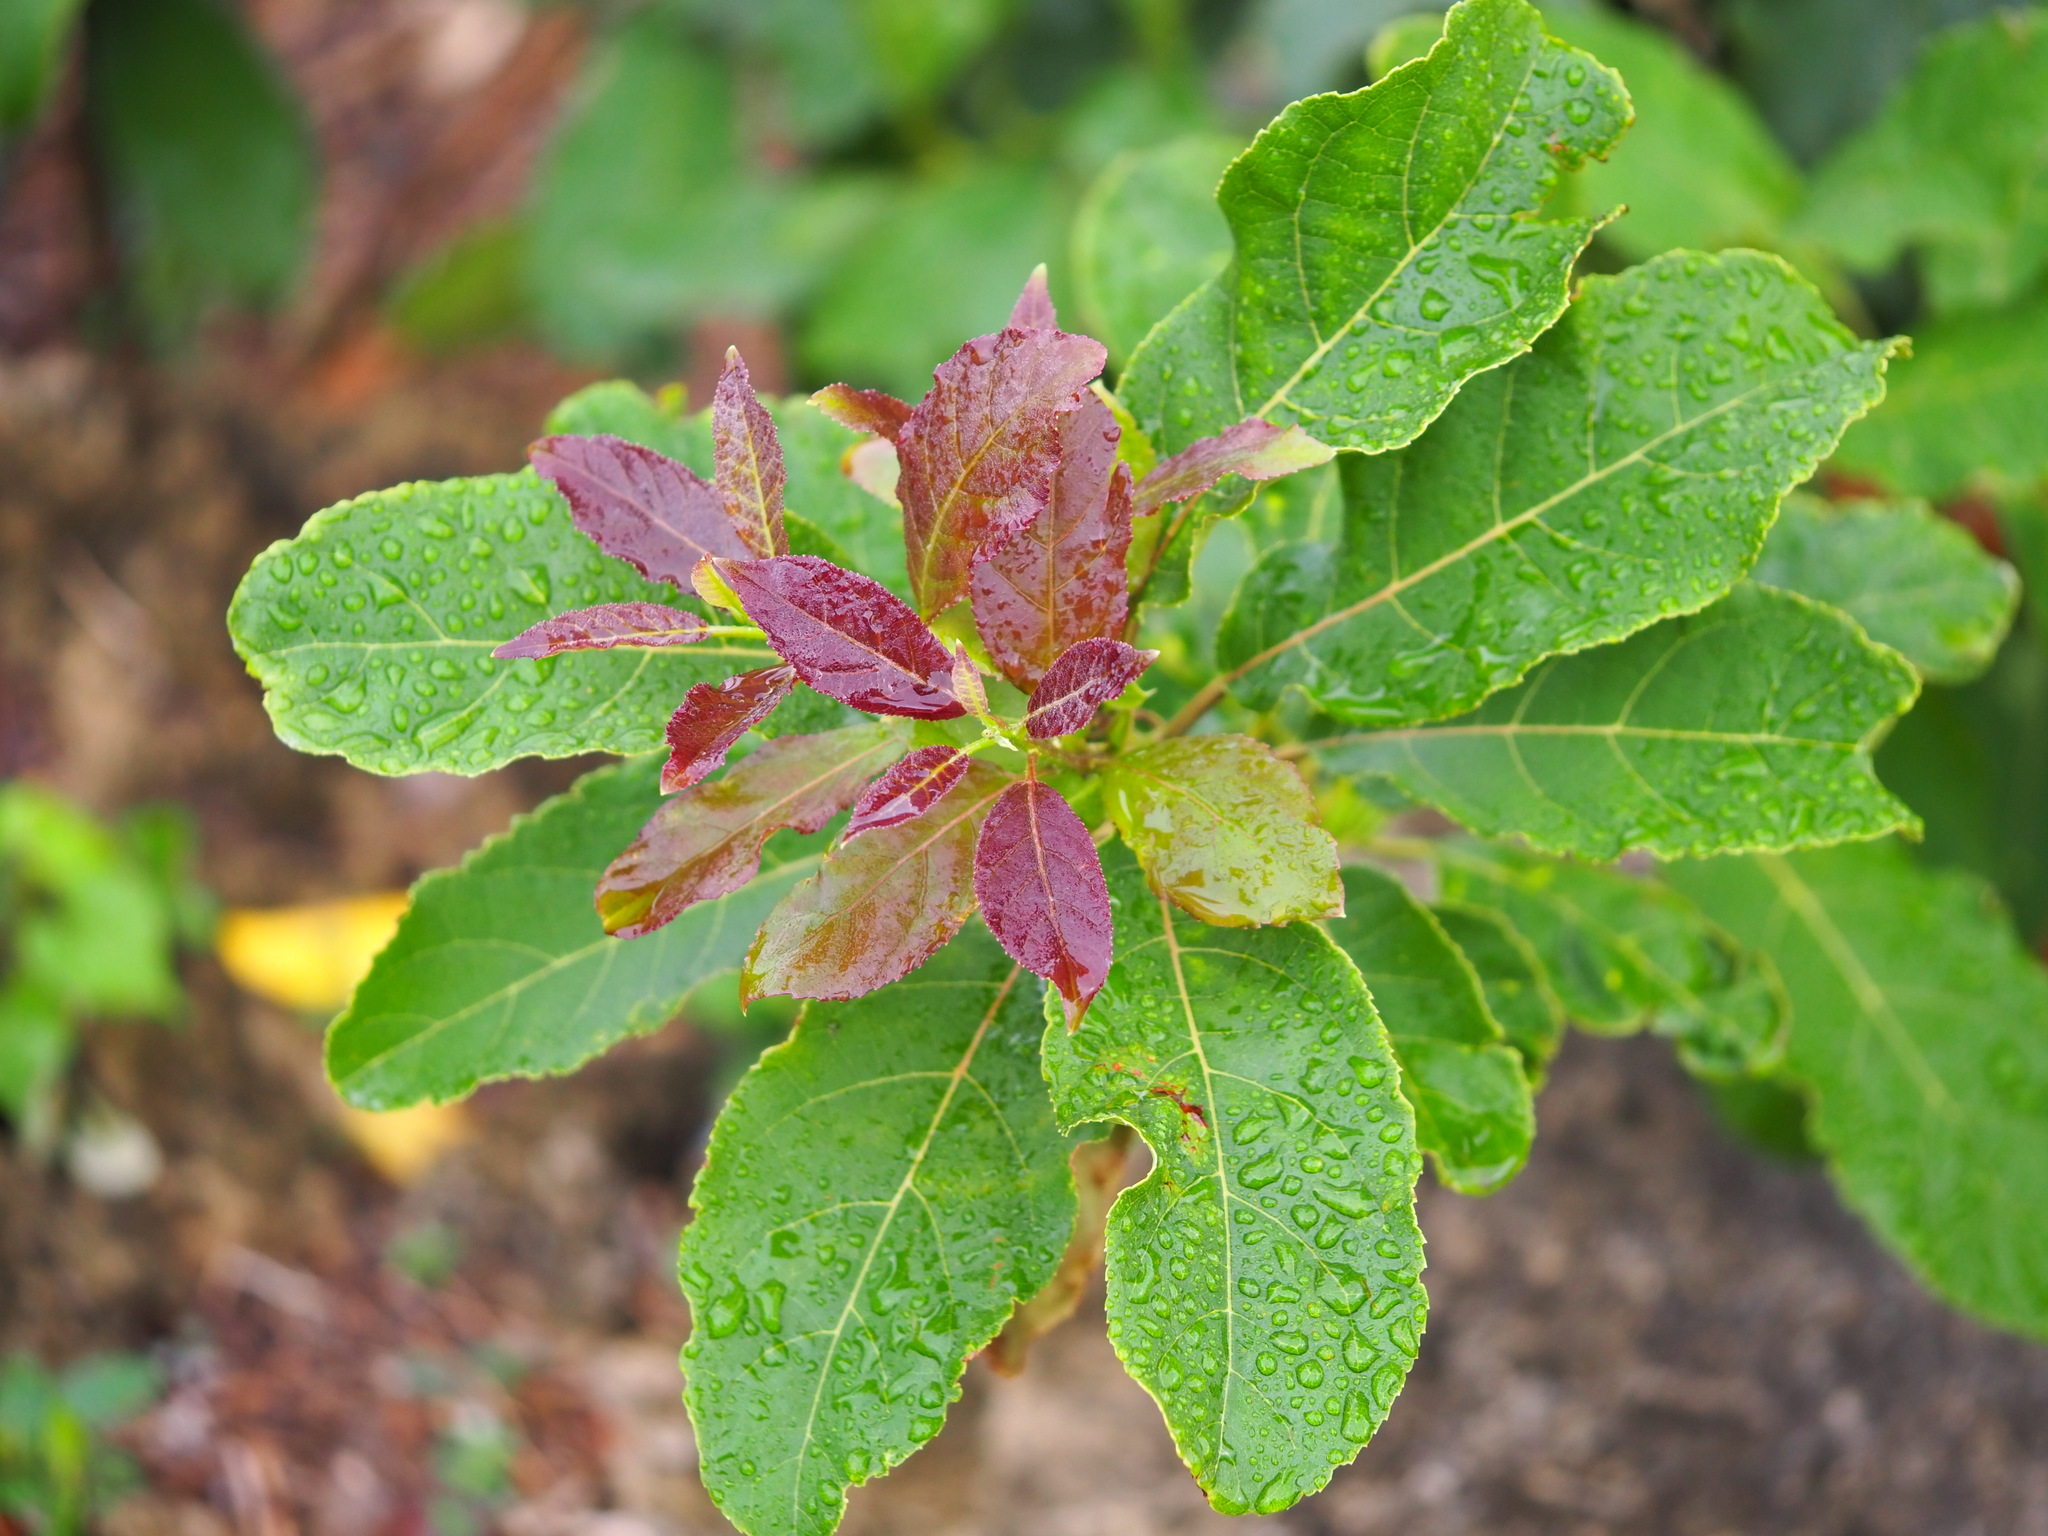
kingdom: Plantae
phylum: Tracheophyta
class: Magnoliopsida
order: Boraginales
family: Ehretiaceae
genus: Ehretia
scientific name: Ehretia resinosa
